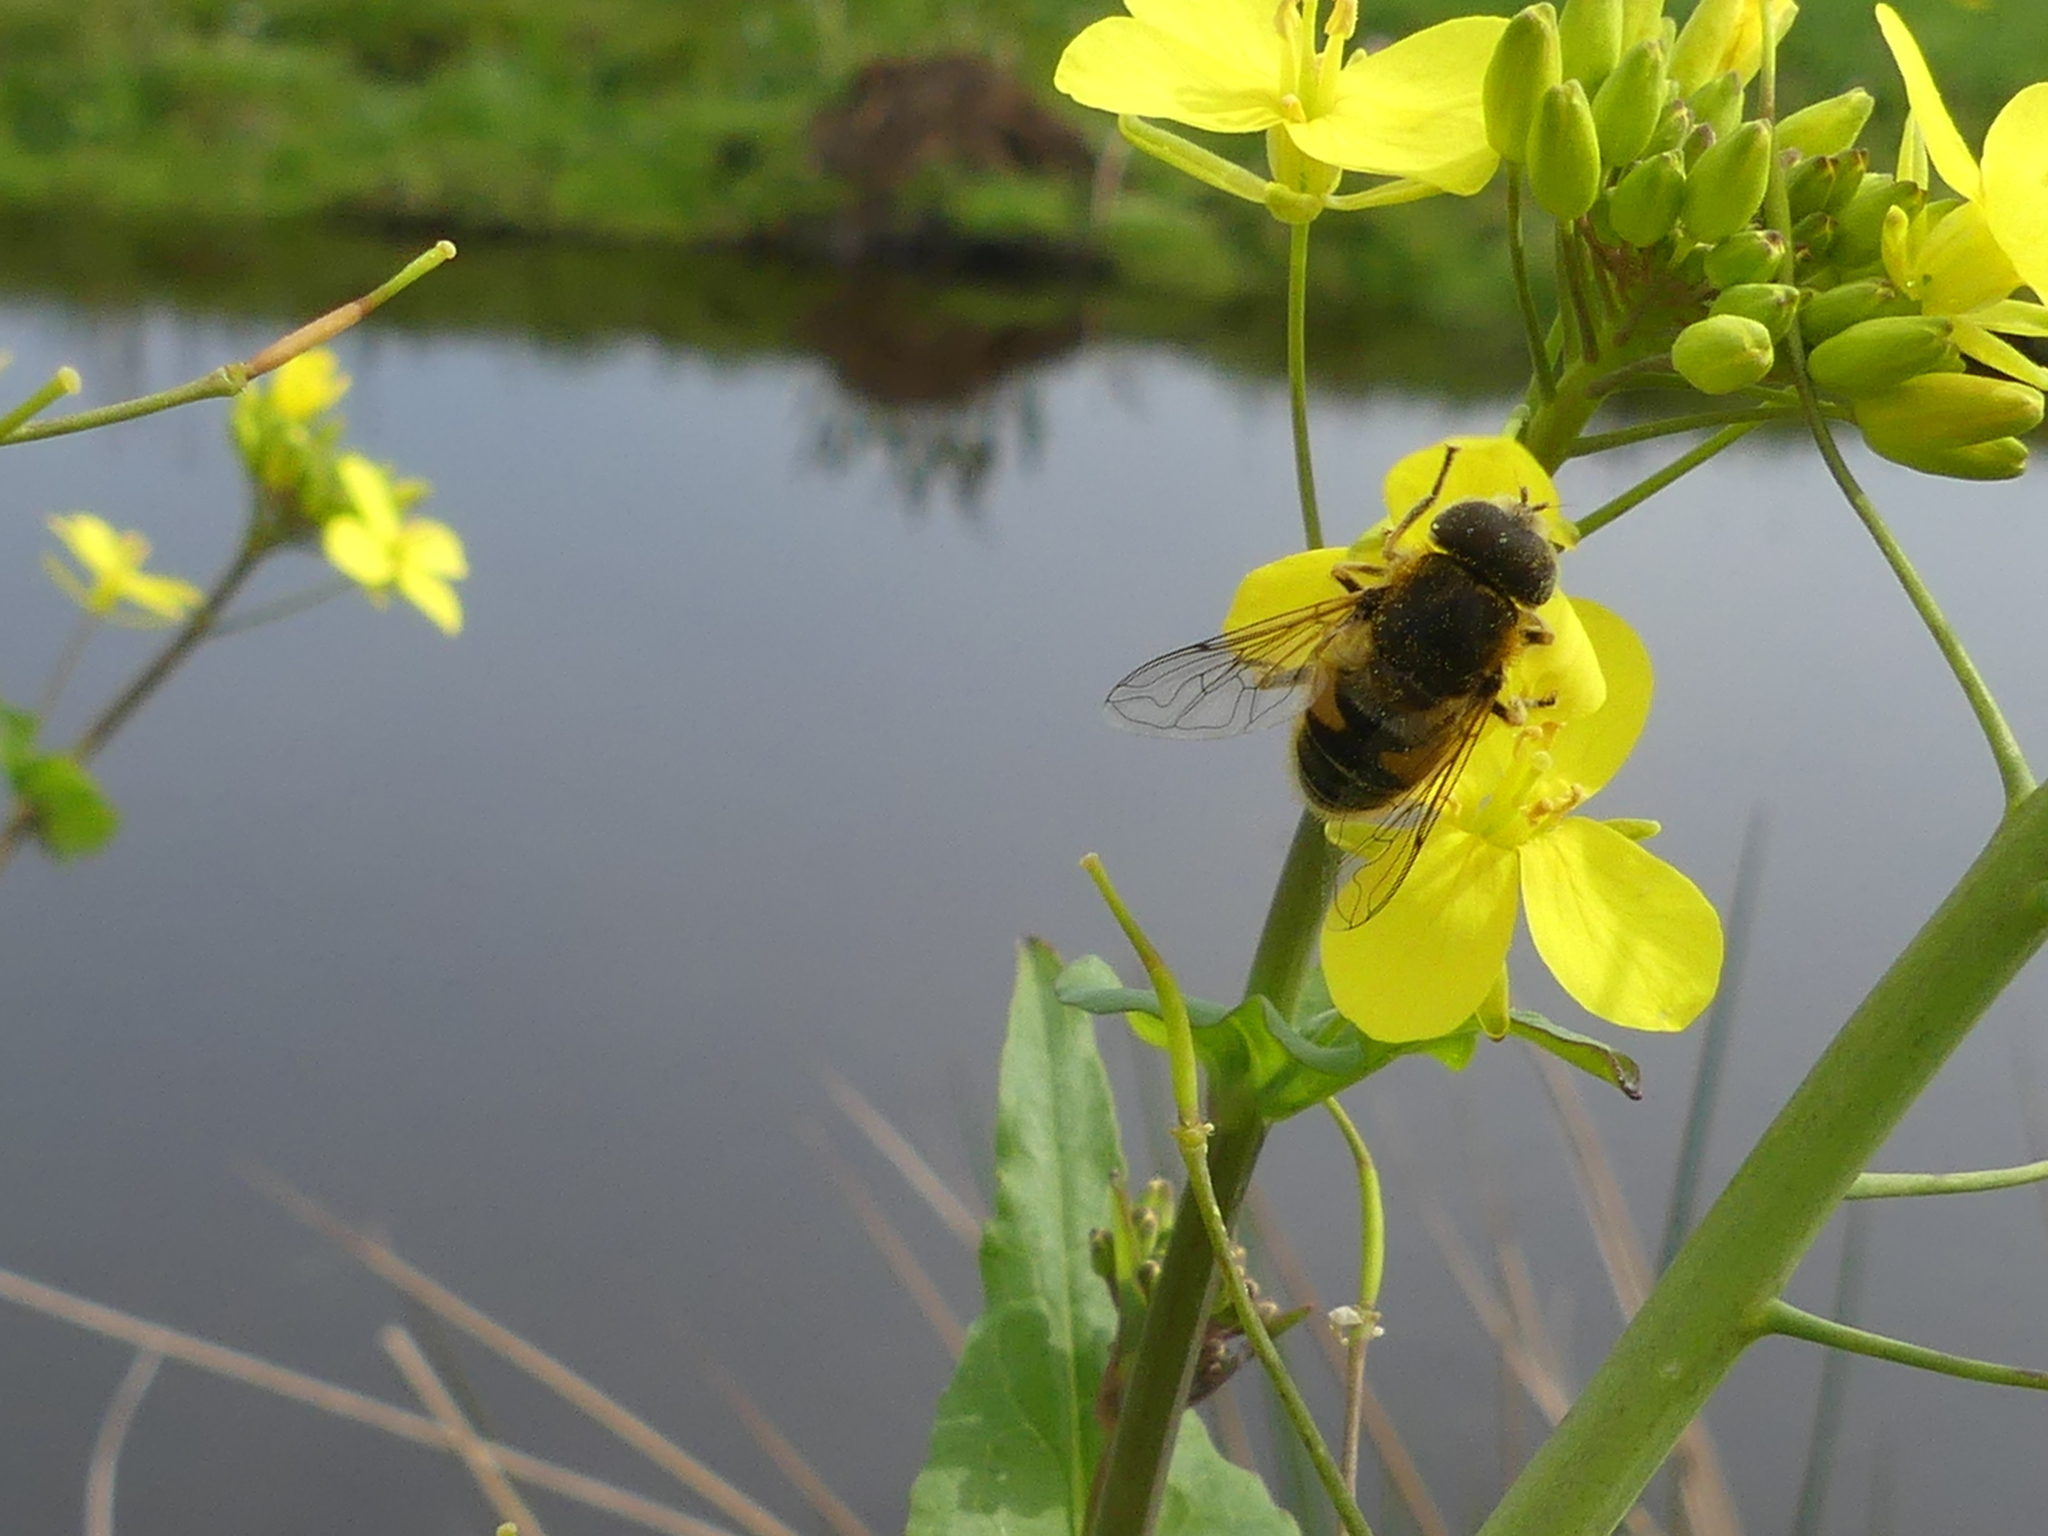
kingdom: Animalia
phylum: Arthropoda
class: Insecta
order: Diptera
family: Syrphidae
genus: Eristalis
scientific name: Eristalis nemorum
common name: Orange-spined drone fly
